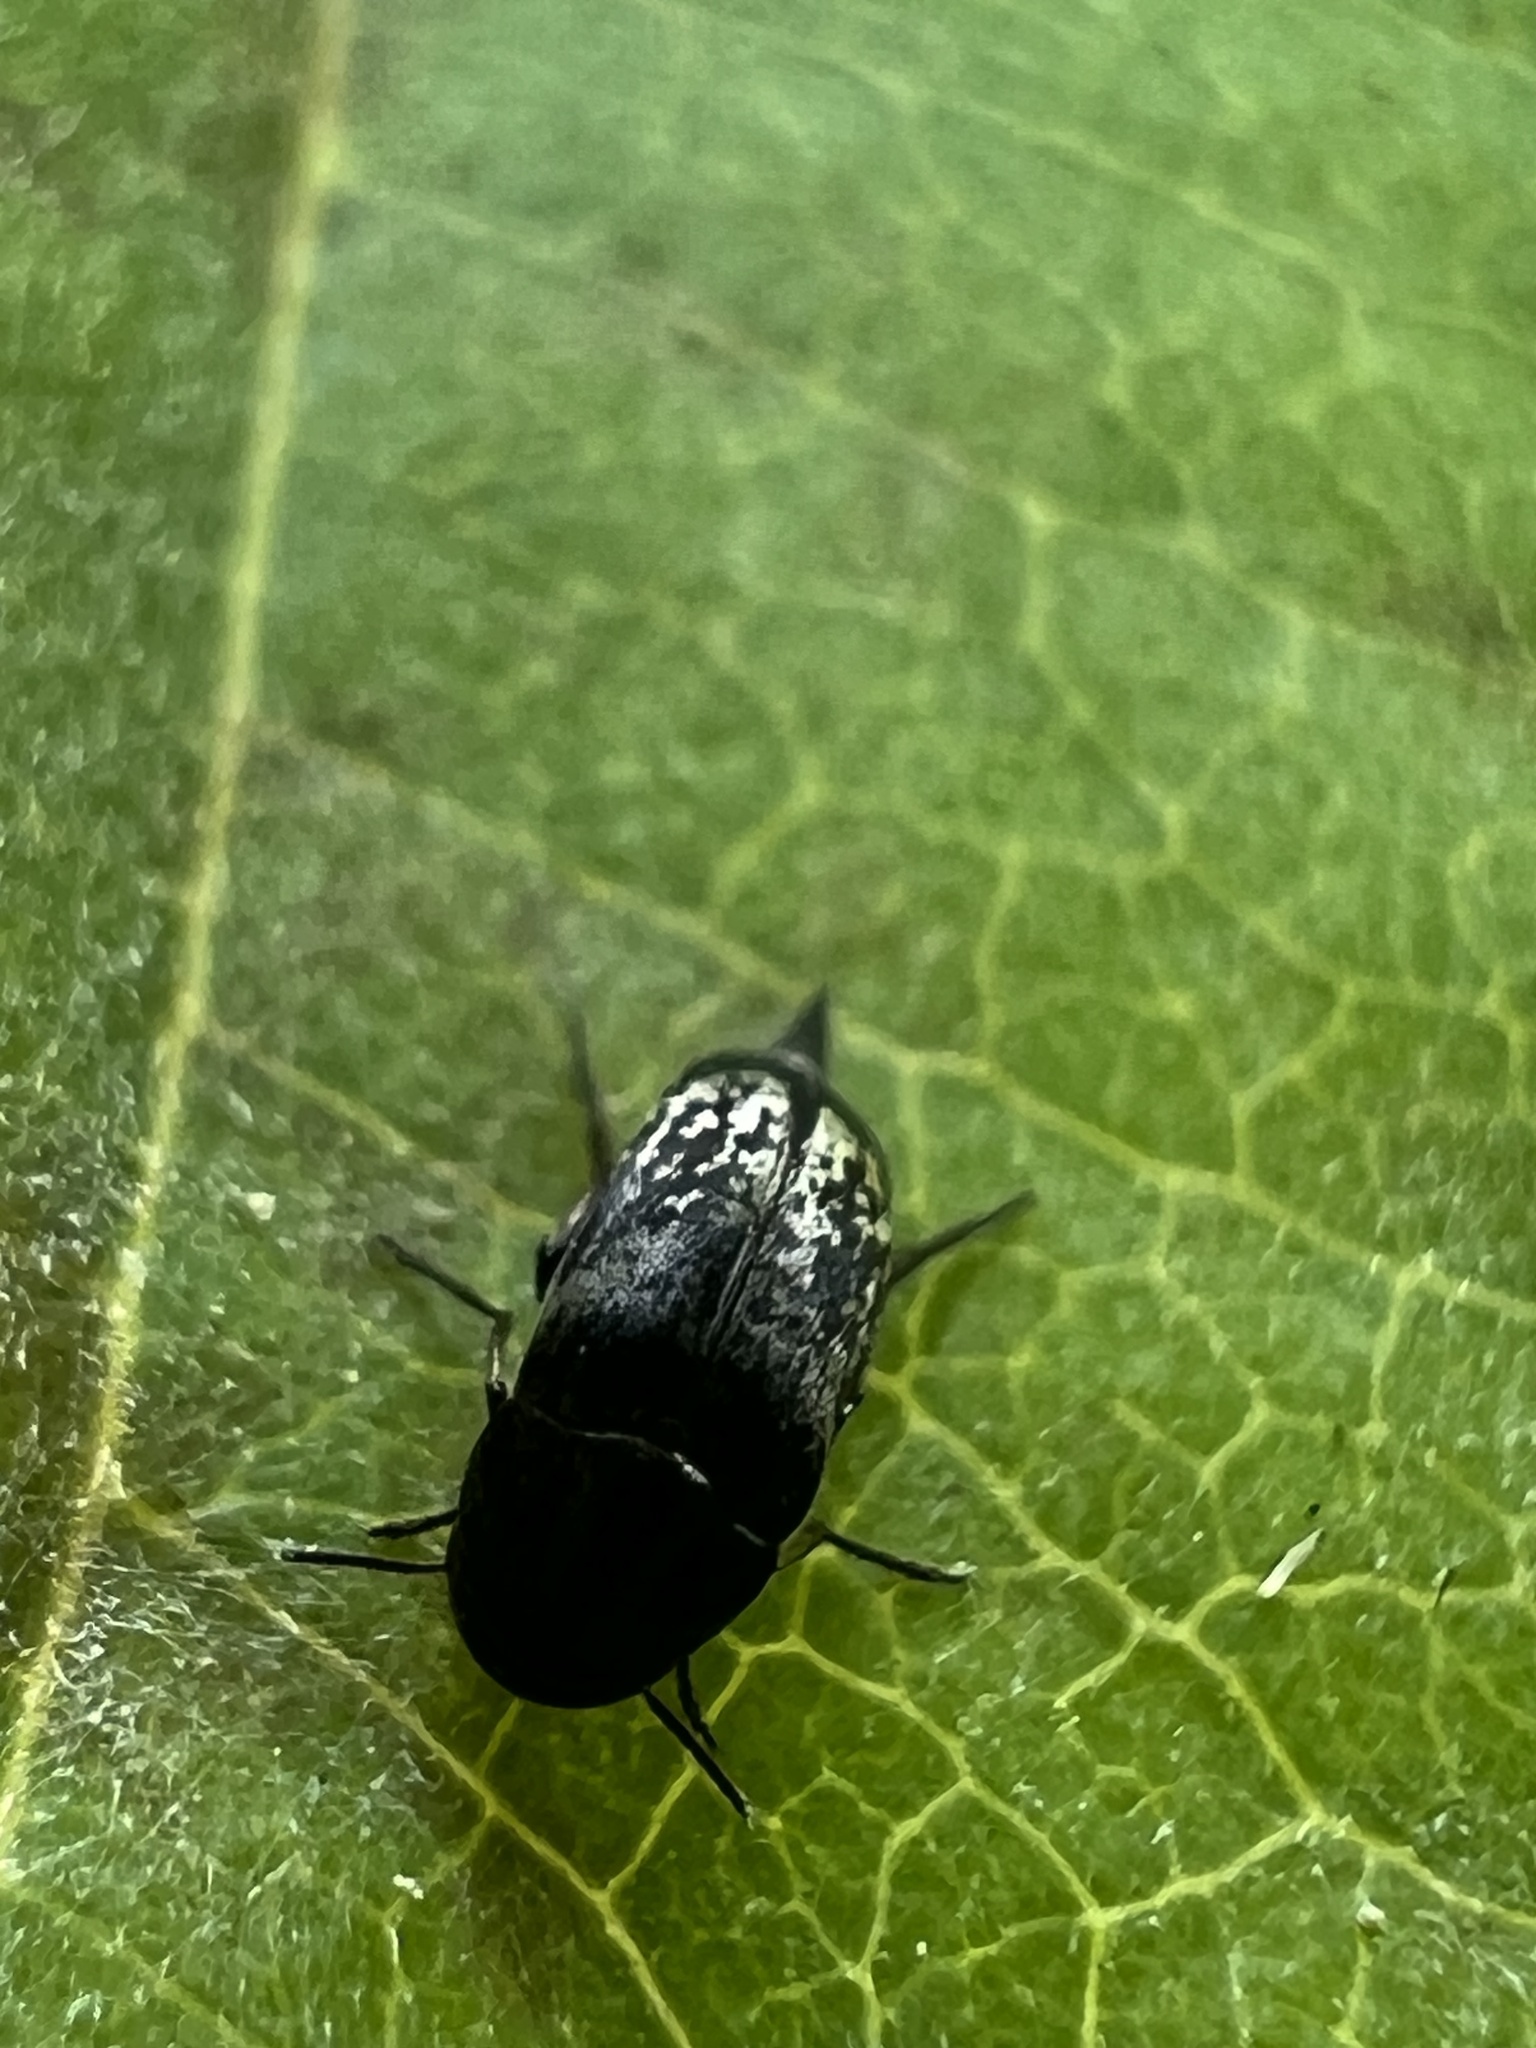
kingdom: Animalia
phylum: Arthropoda
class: Insecta
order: Coleoptera
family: Mordellidae
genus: Mordella
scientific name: Mordella marginata
